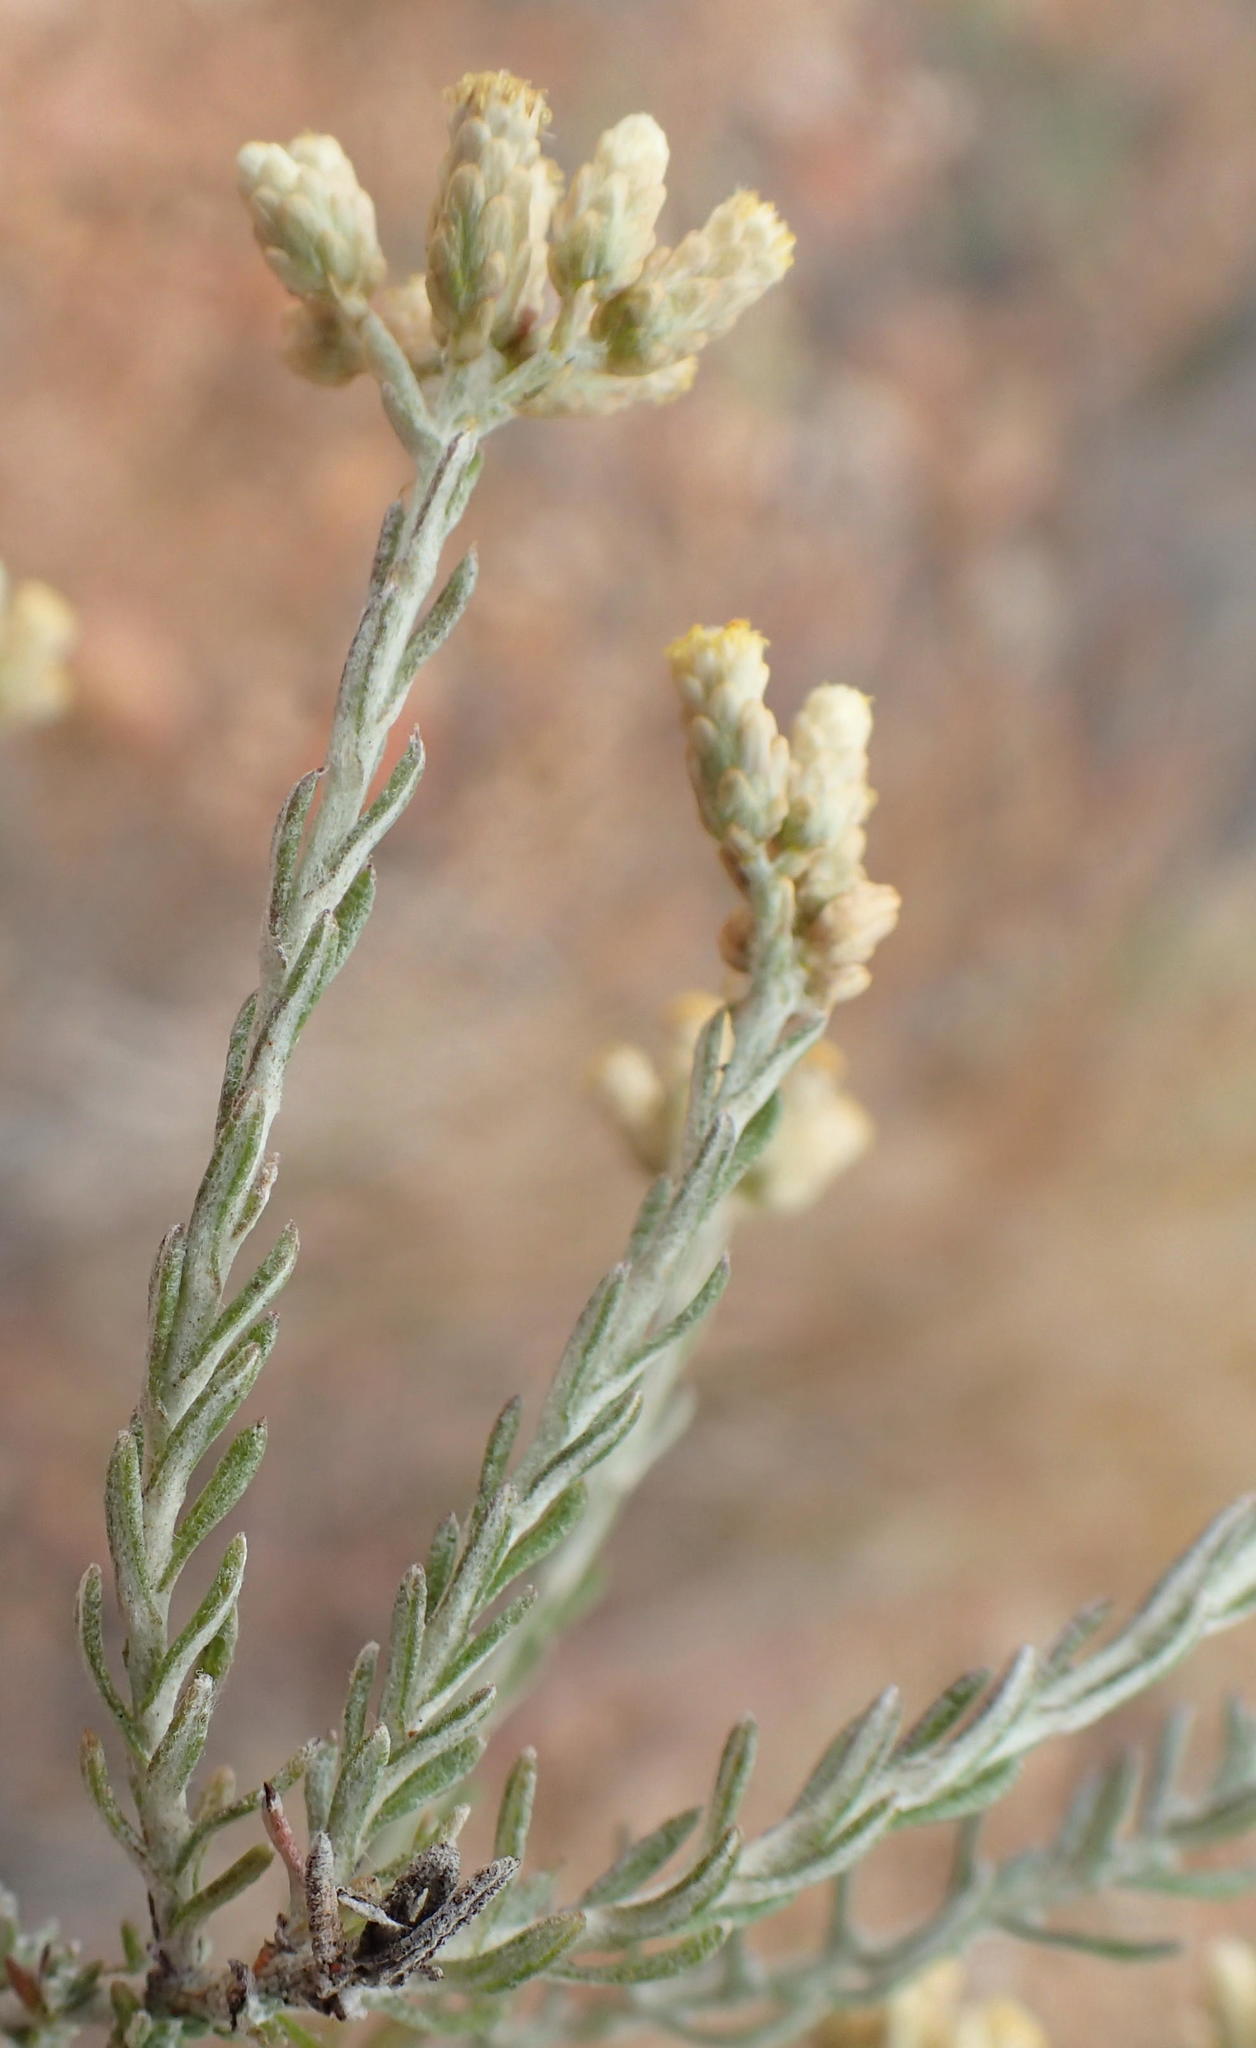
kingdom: Plantae
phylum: Tracheophyta
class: Magnoliopsida
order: Asterales
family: Asteraceae
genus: Helichrysum
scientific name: Helichrysum rosum
